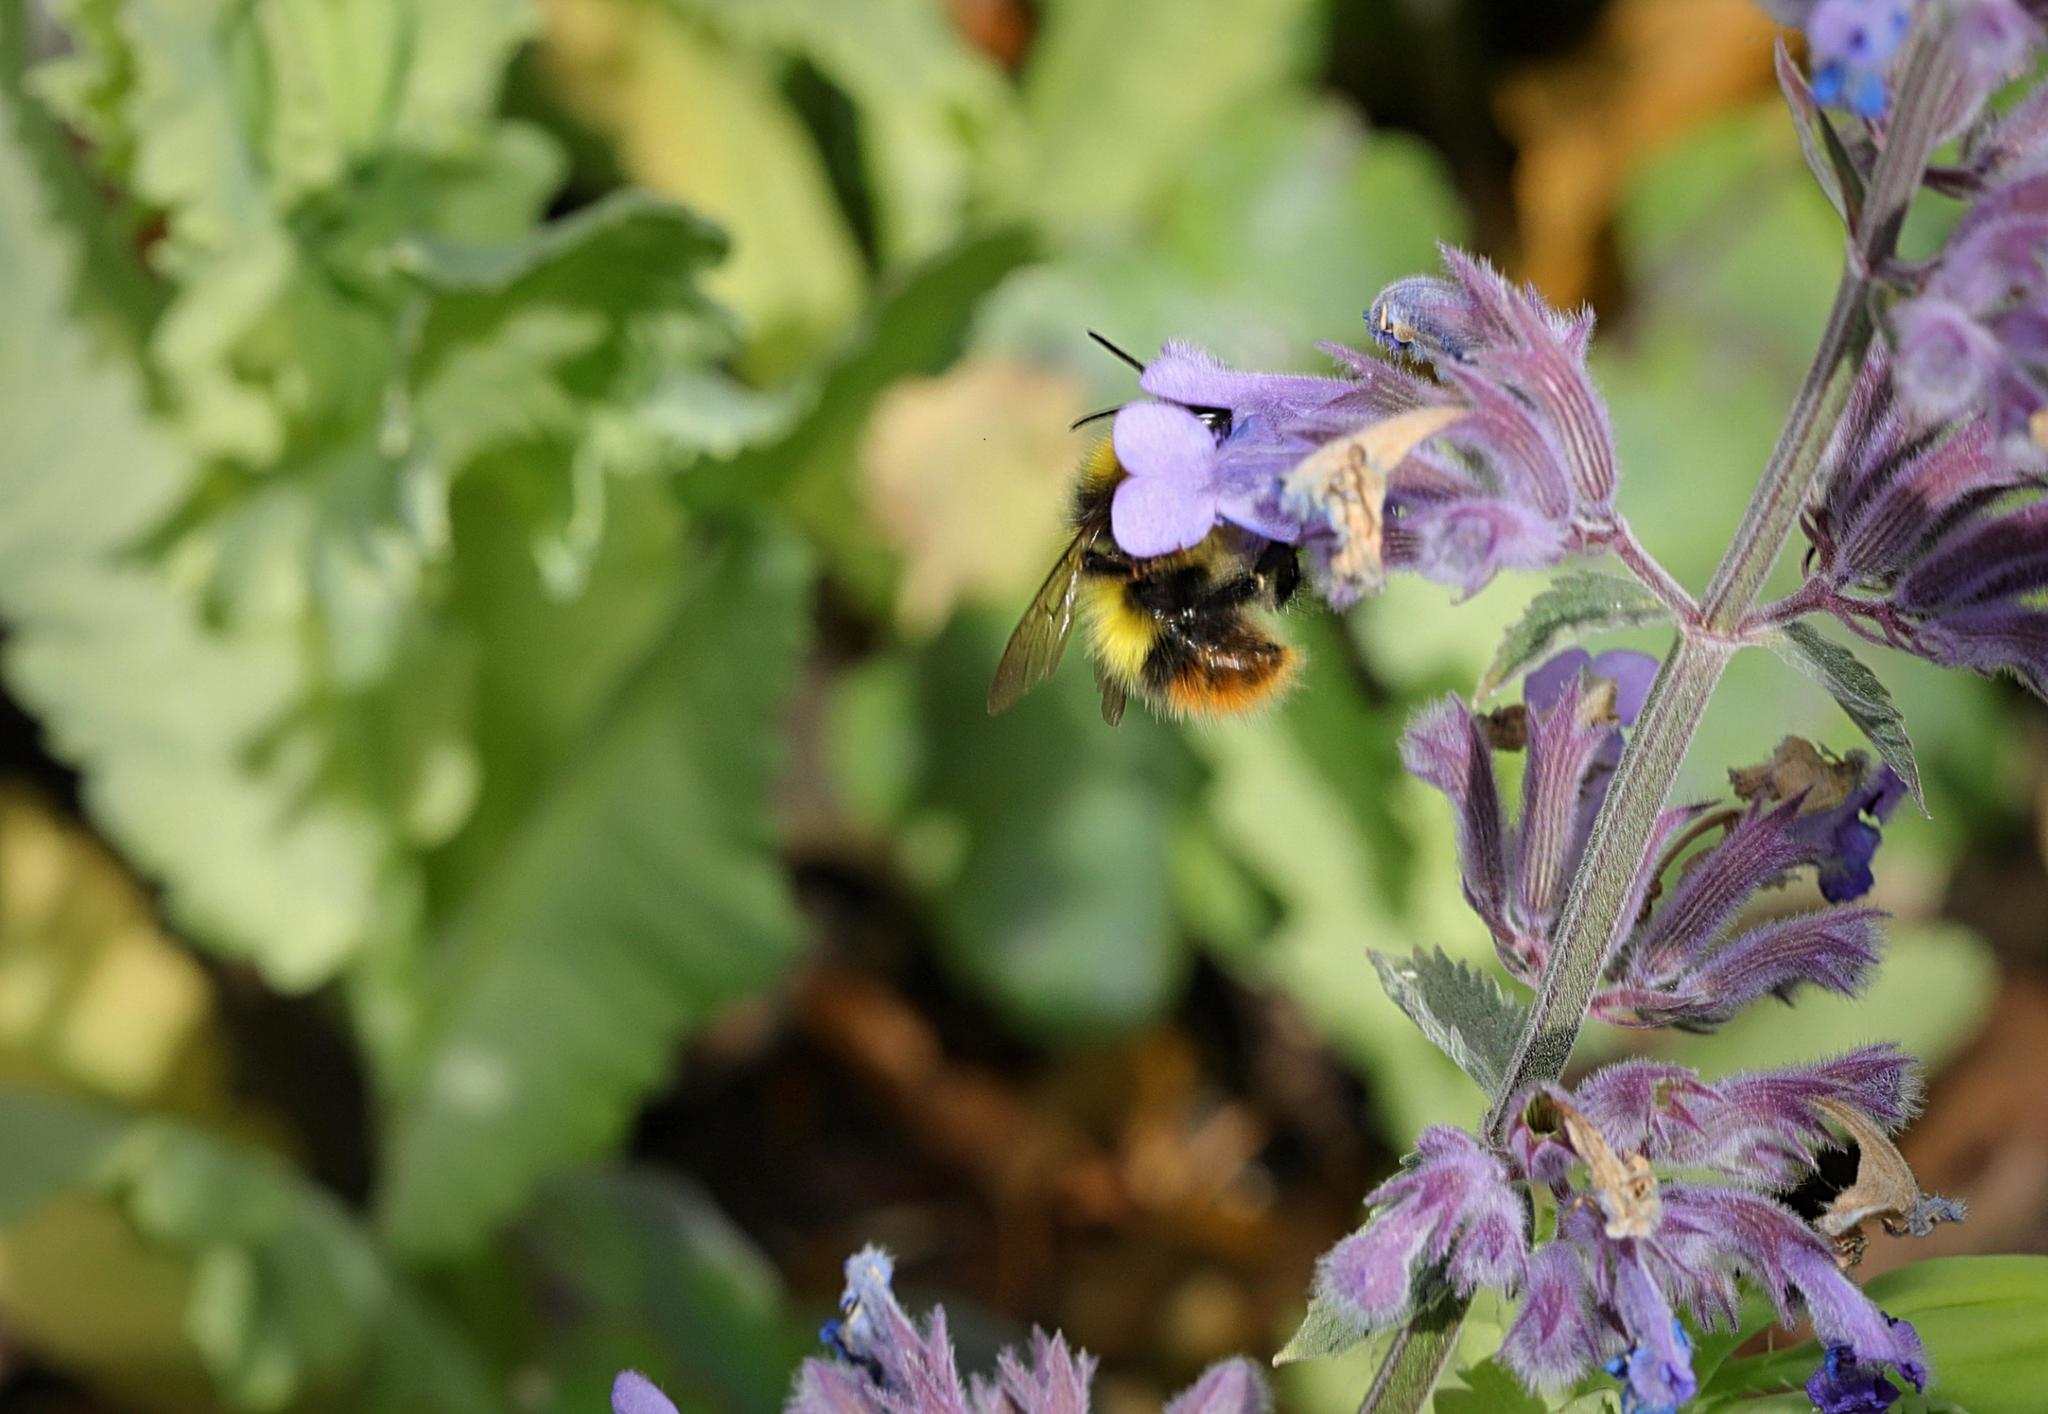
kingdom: Animalia
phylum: Arthropoda
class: Insecta
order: Hymenoptera
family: Apidae
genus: Bombus
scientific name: Bombus pratorum
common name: Early humble-bee
